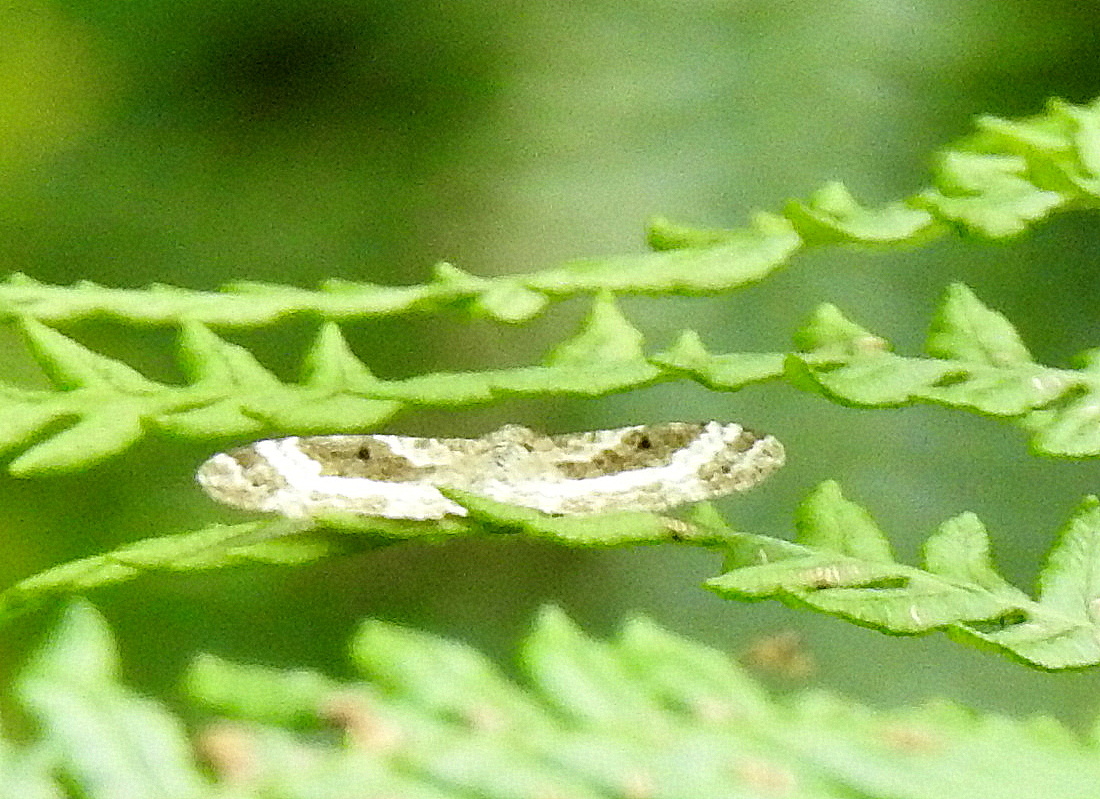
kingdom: Animalia
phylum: Arthropoda
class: Insecta
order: Lepidoptera
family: Geometridae
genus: Xanthorhoe
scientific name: Xanthorhoe montanata
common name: Silver-ground carpet
